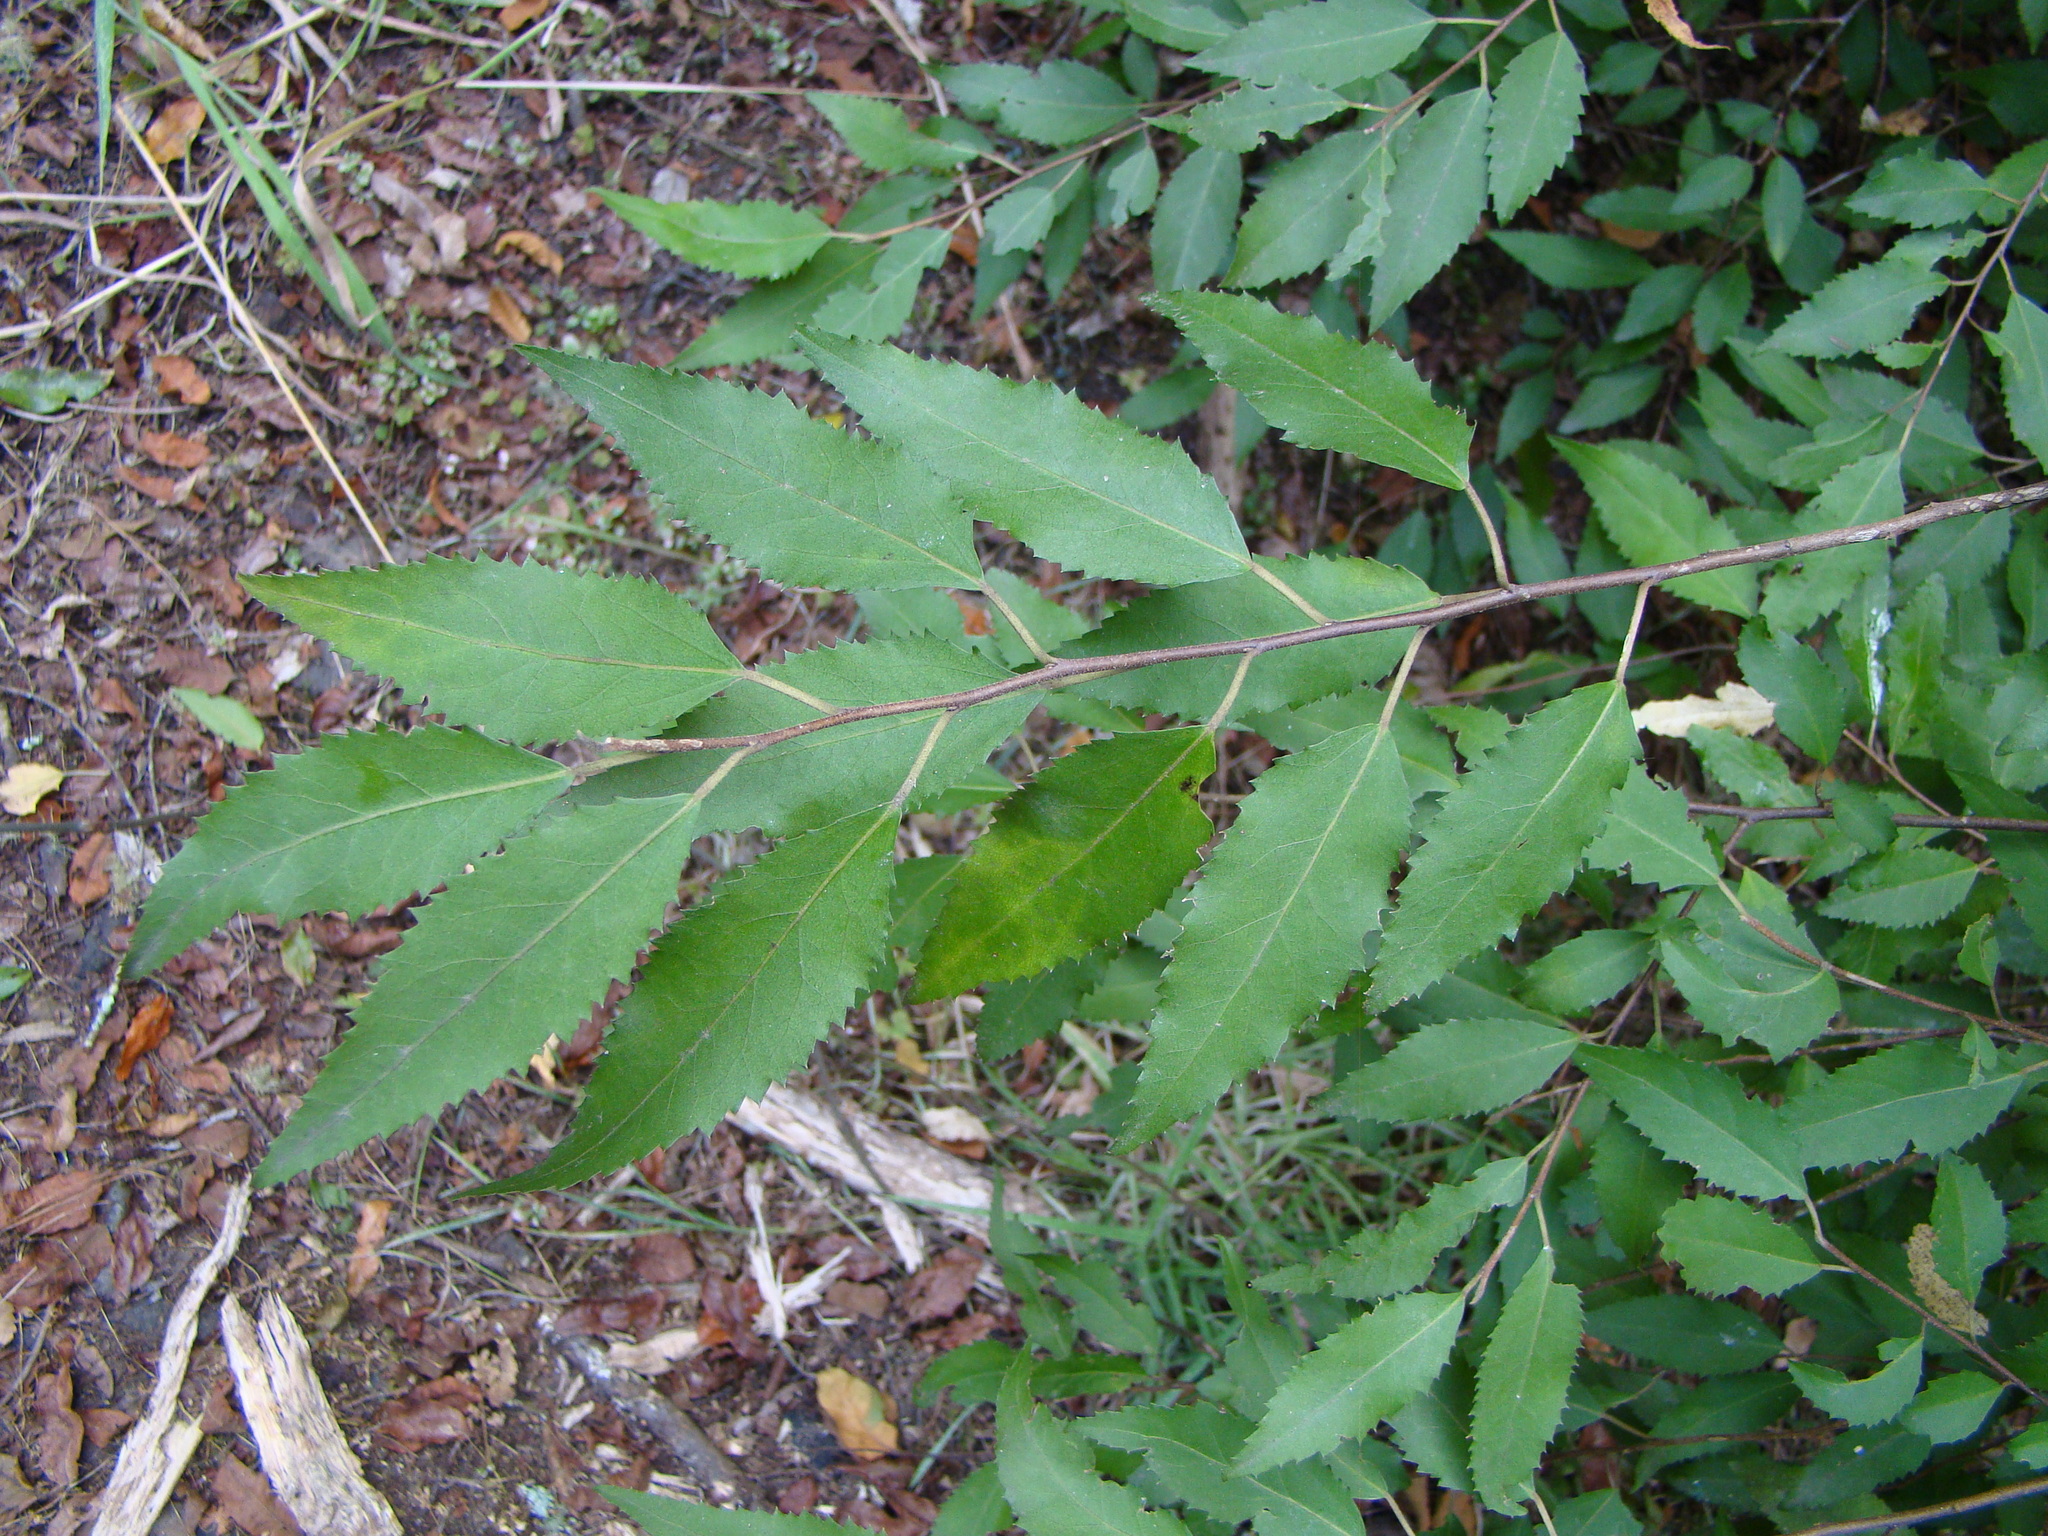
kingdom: Plantae
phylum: Tracheophyta
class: Magnoliopsida
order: Malvales
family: Malvaceae
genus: Hoheria
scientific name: Hoheria sexstylosa
